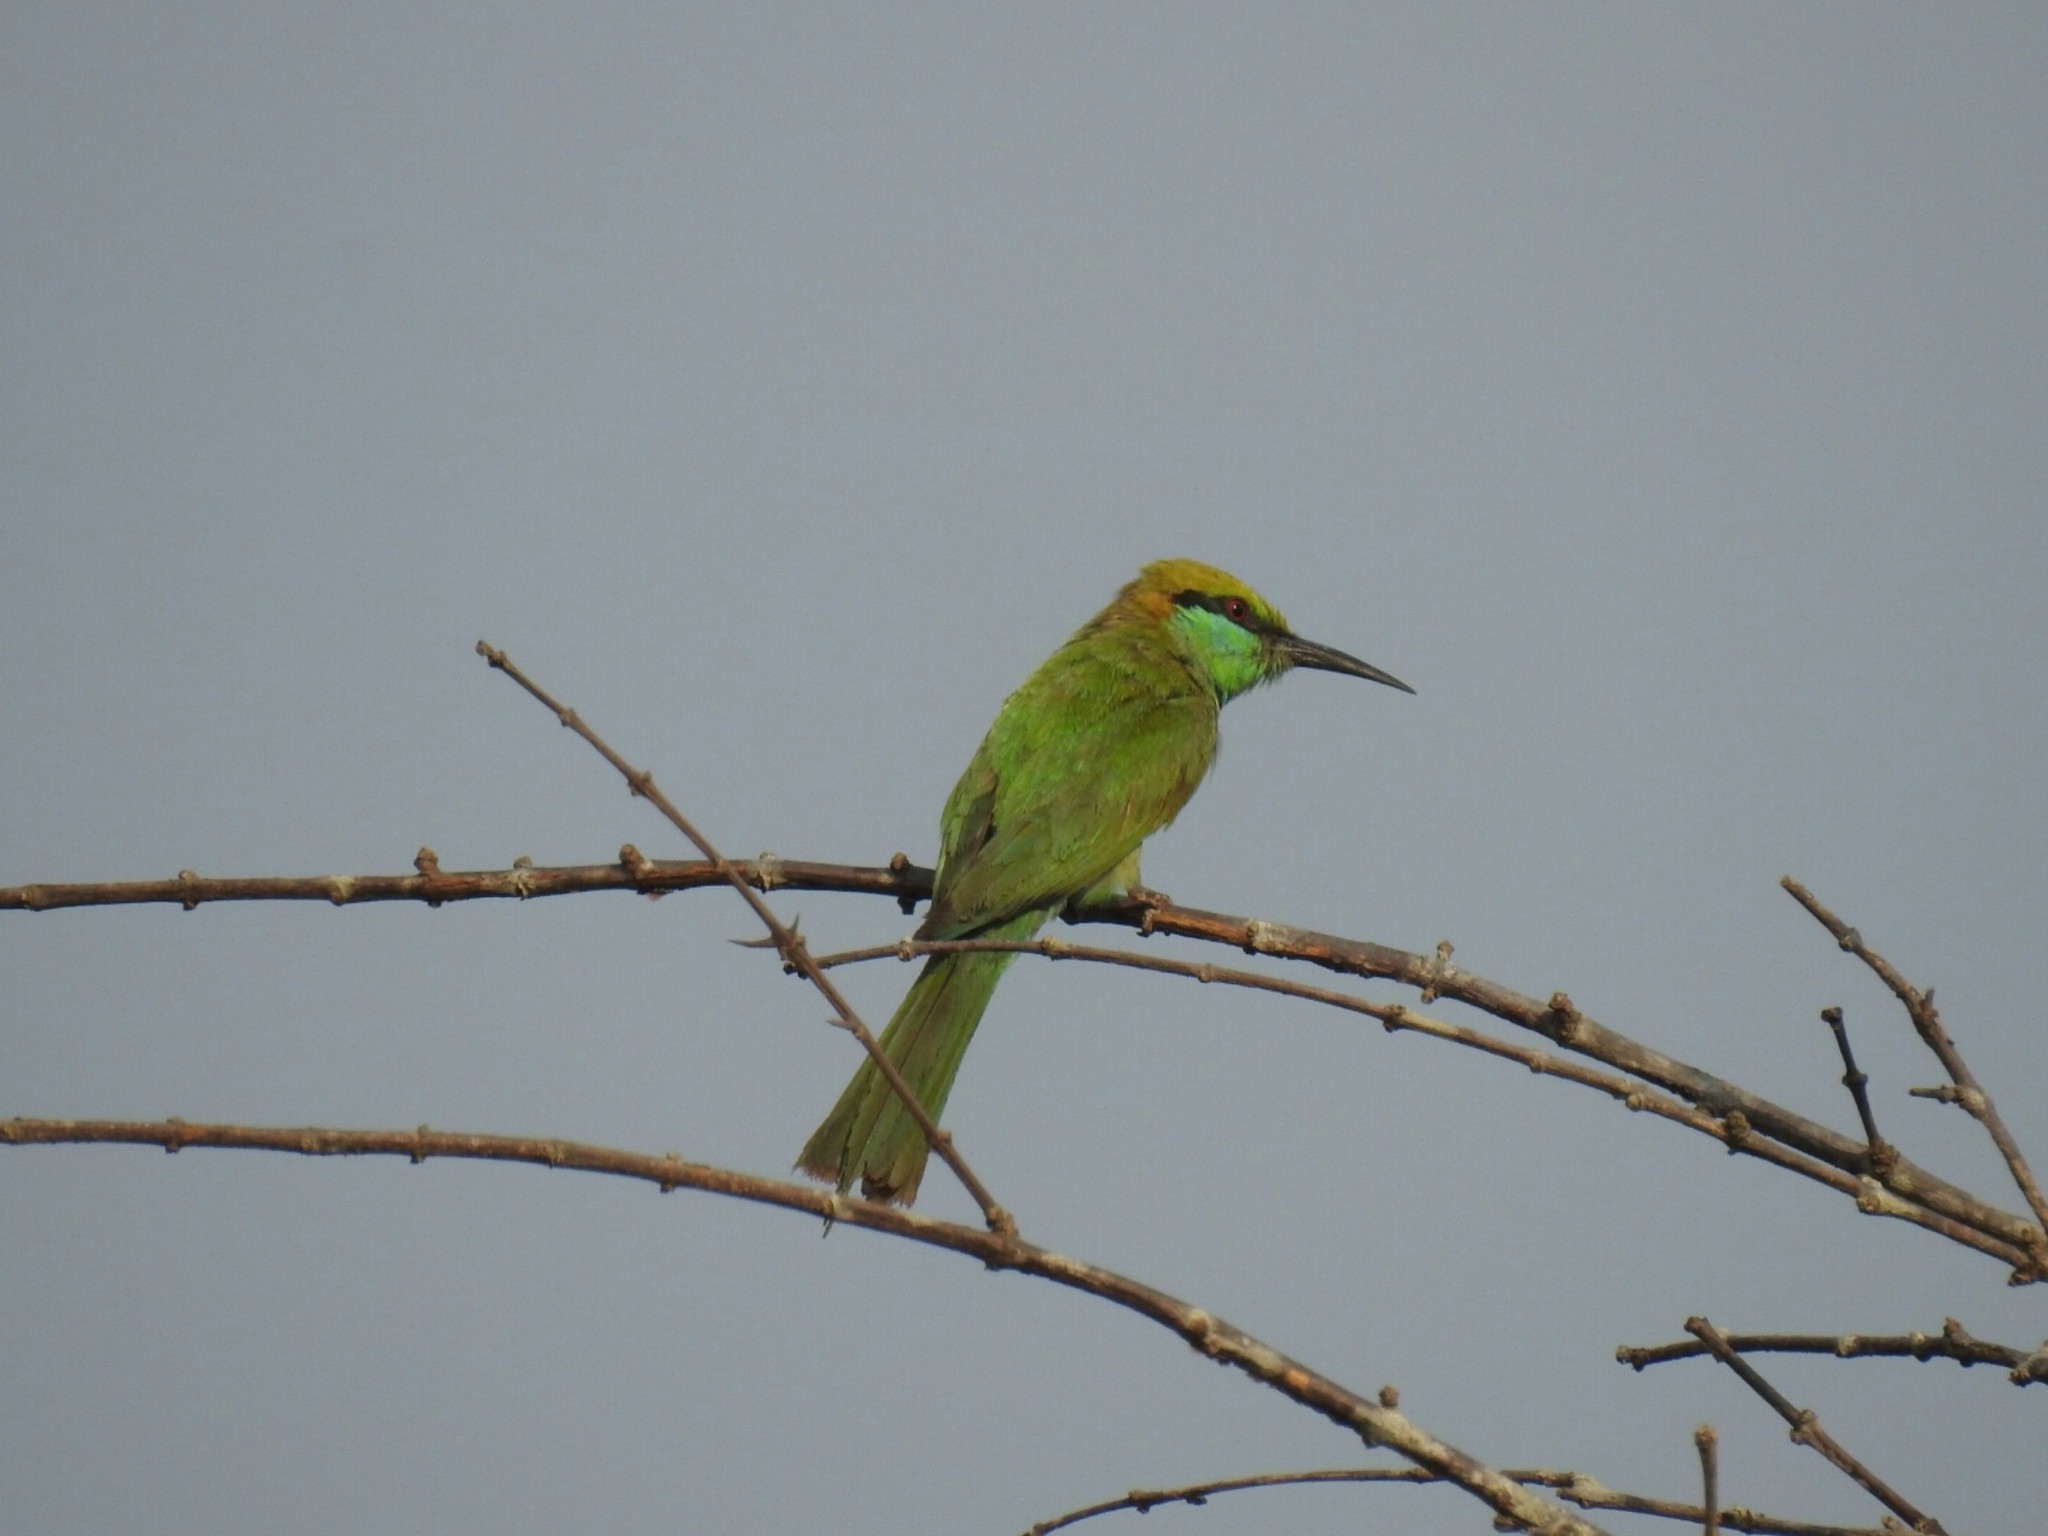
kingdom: Animalia
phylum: Chordata
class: Aves
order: Coraciiformes
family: Meropidae
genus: Merops
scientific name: Merops orientalis
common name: Green bee-eater
